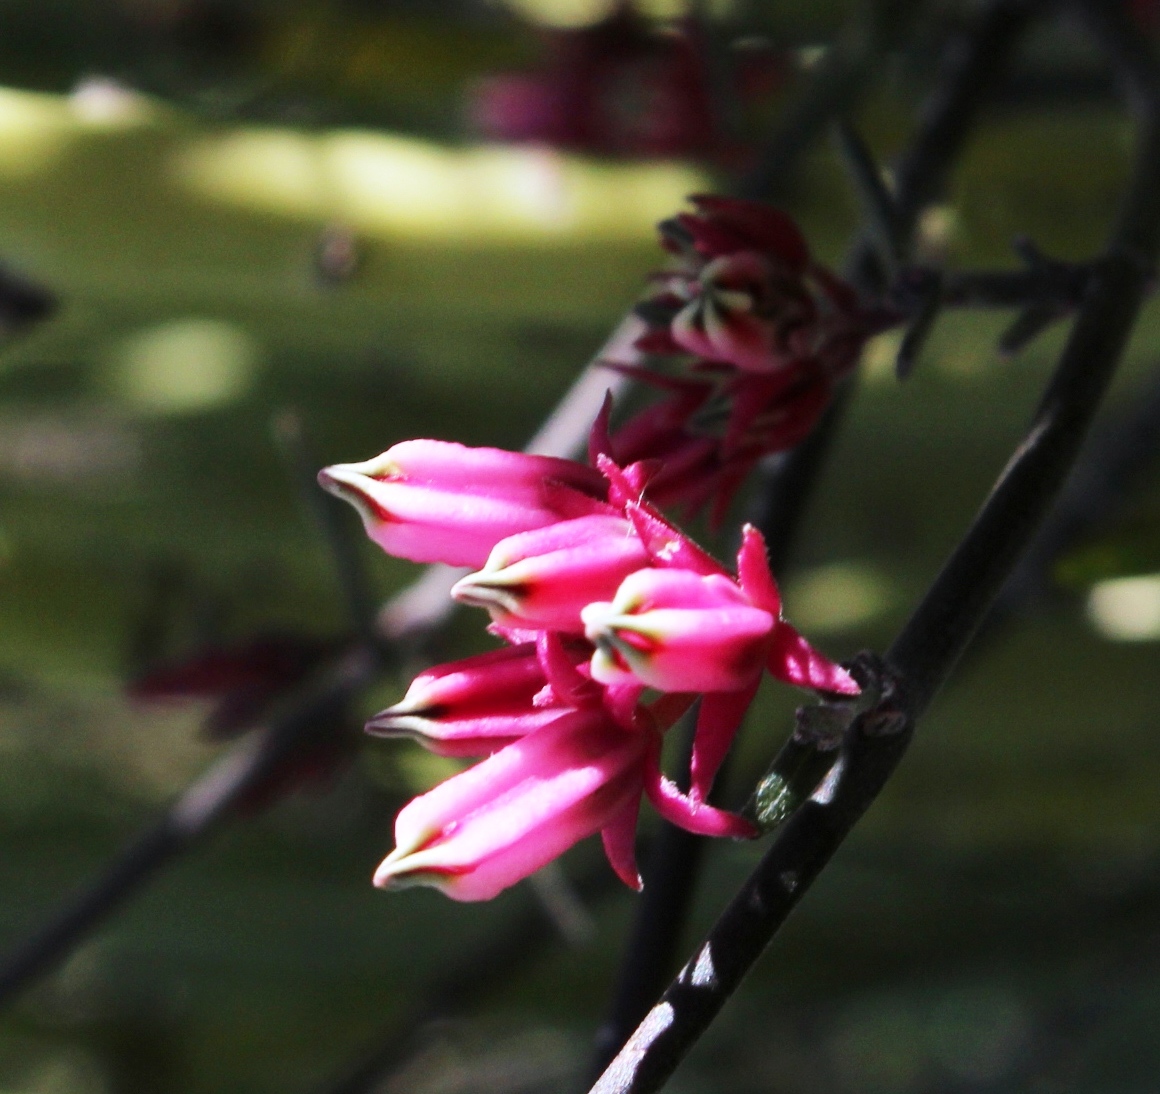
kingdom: Plantae
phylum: Tracheophyta
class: Magnoliopsida
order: Gentianales
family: Apocynaceae
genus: Microloma
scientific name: Microloma sagittatum
